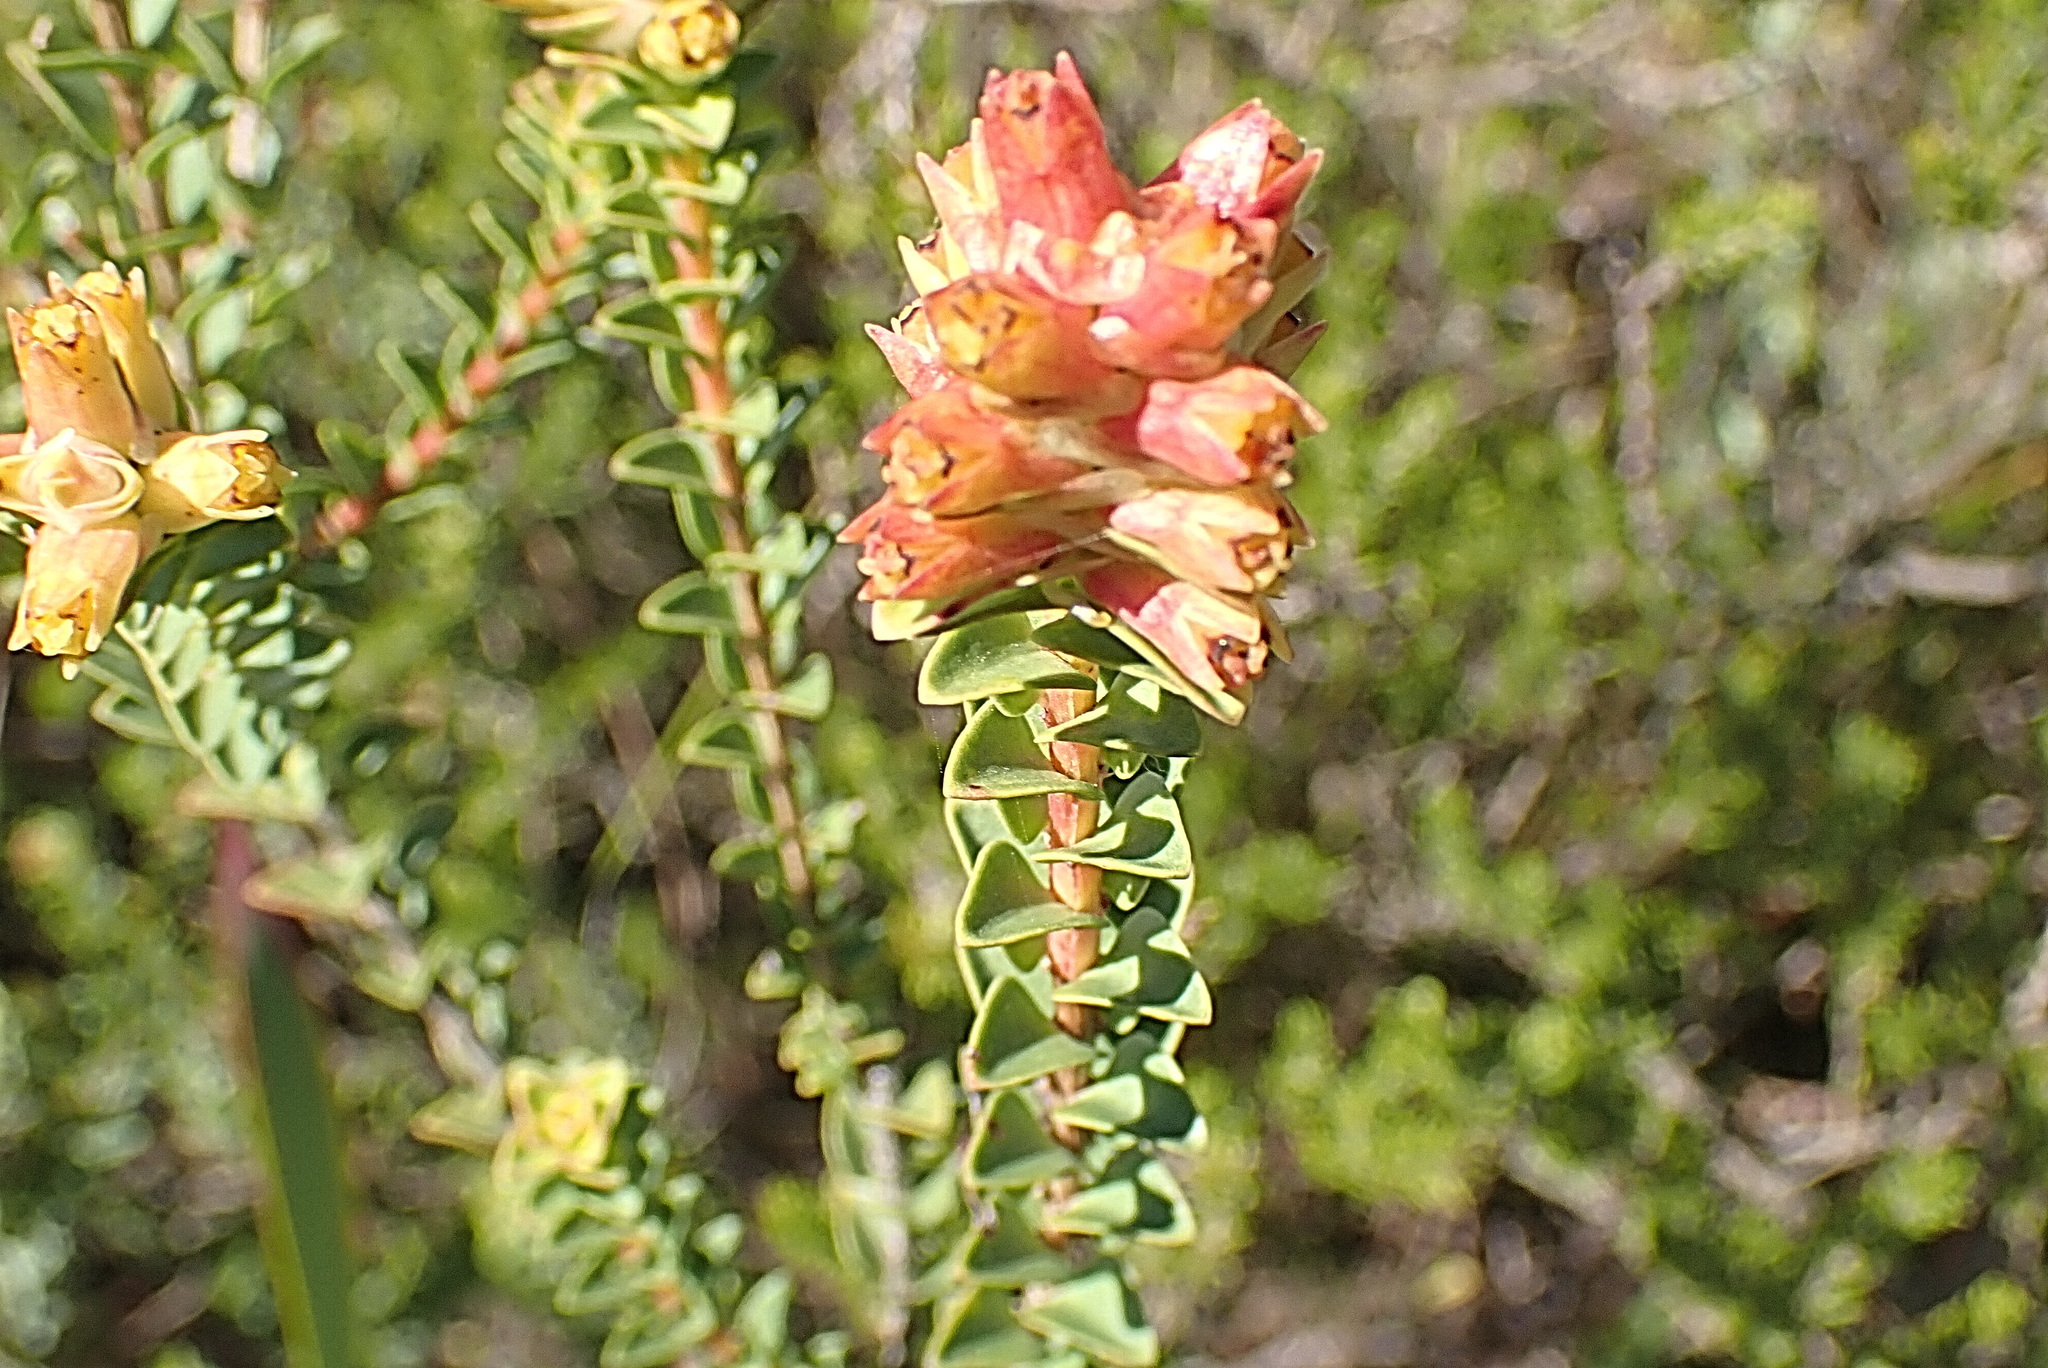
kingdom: Plantae
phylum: Tracheophyta
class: Magnoliopsida
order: Myrtales
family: Penaeaceae
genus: Penaea
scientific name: Penaea cneorum
